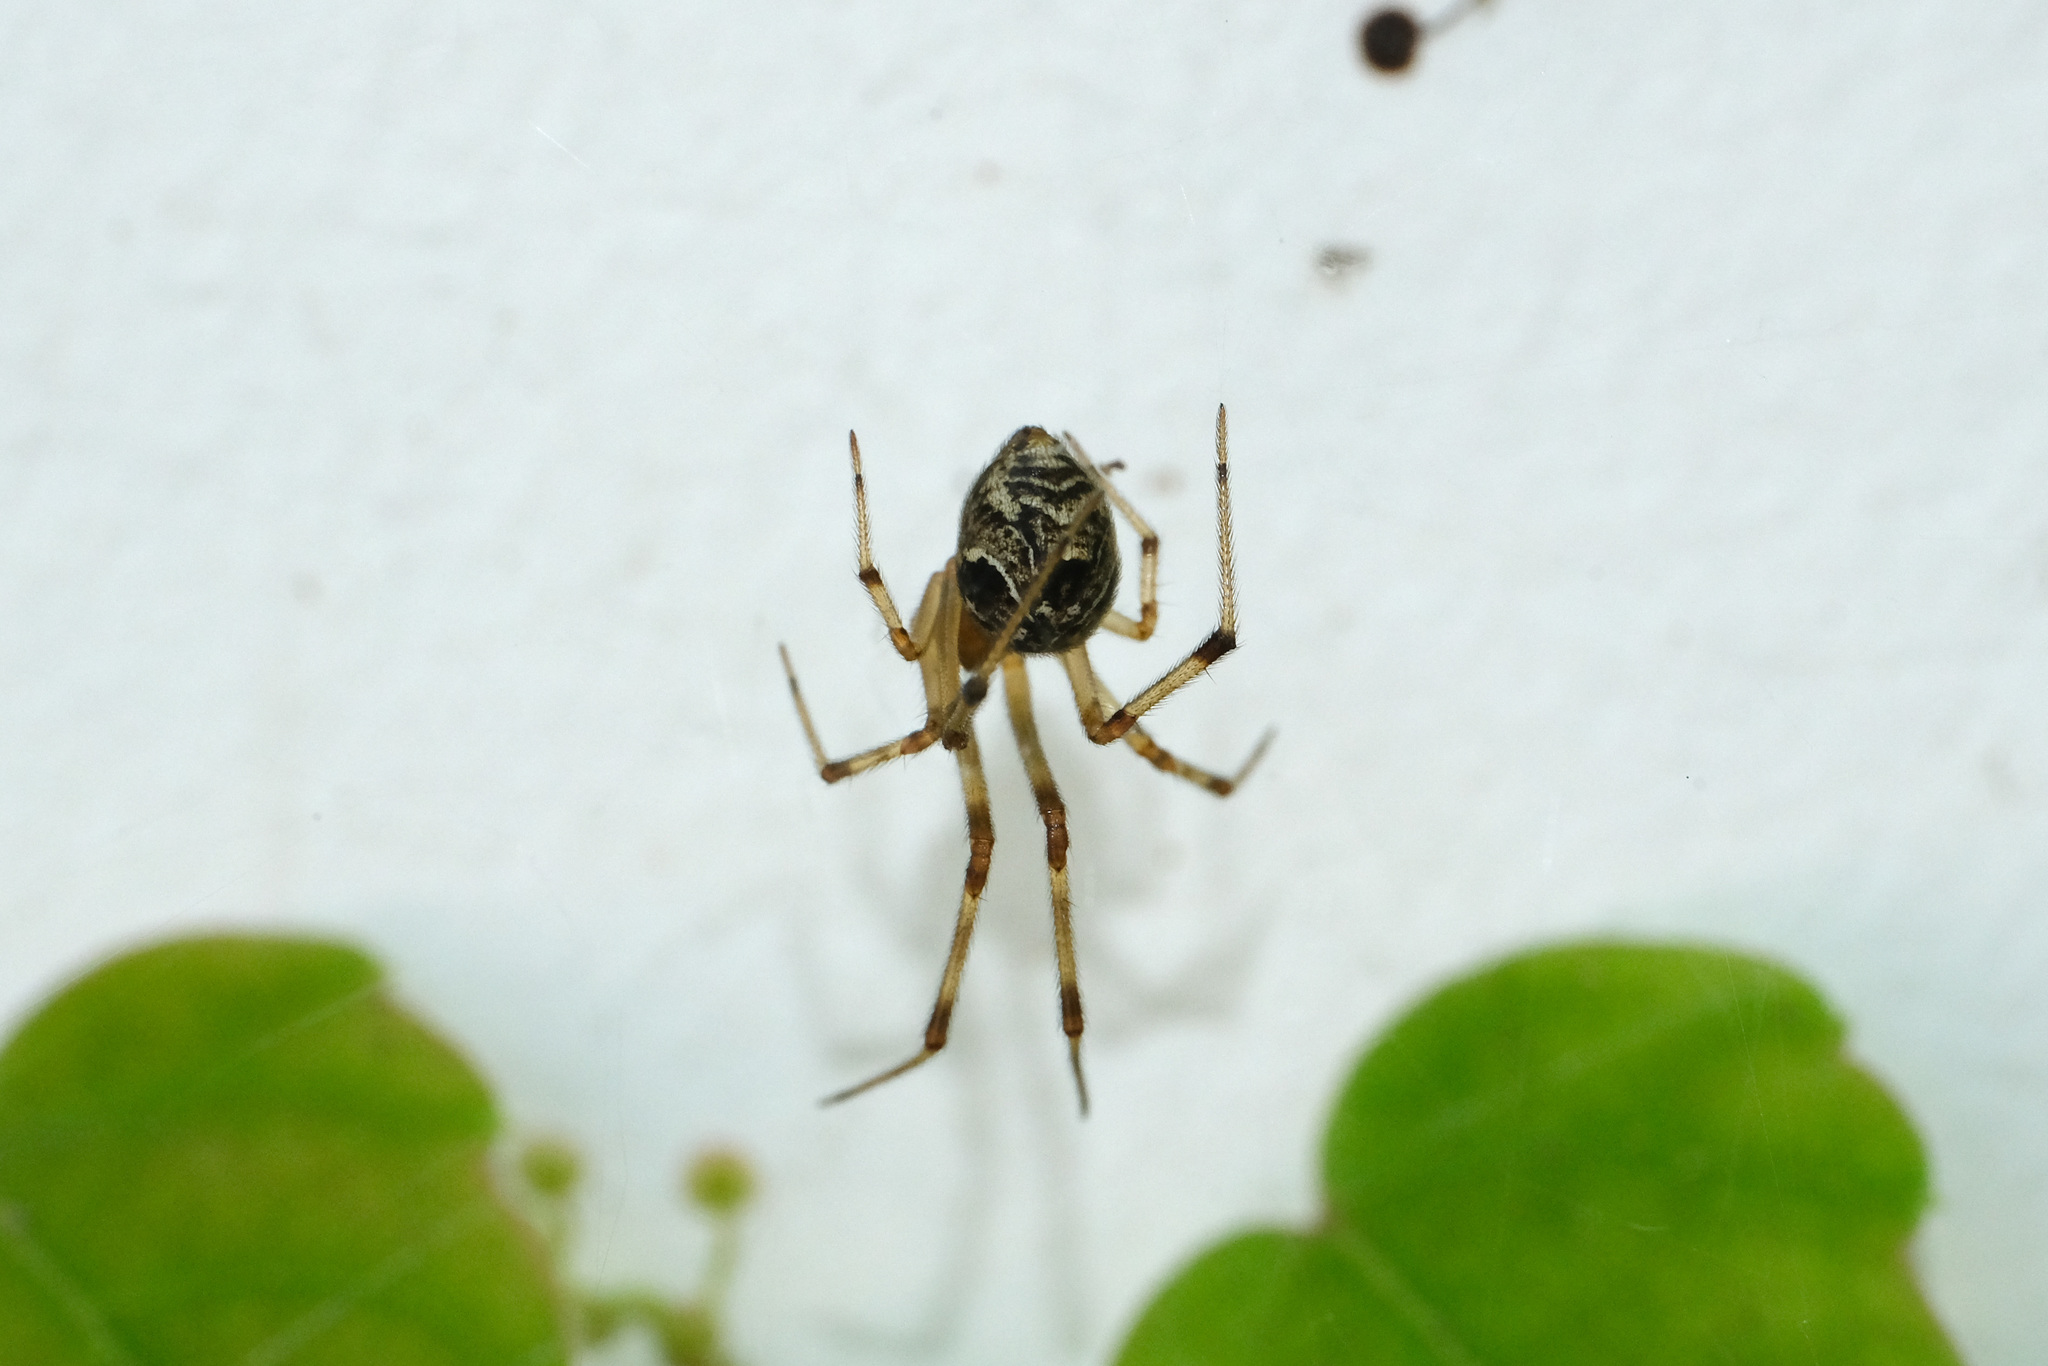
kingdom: Animalia
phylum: Arthropoda
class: Arachnida
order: Araneae
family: Theridiidae
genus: Parasteatoda
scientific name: Parasteatoda tepidariorum
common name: Common house spider
